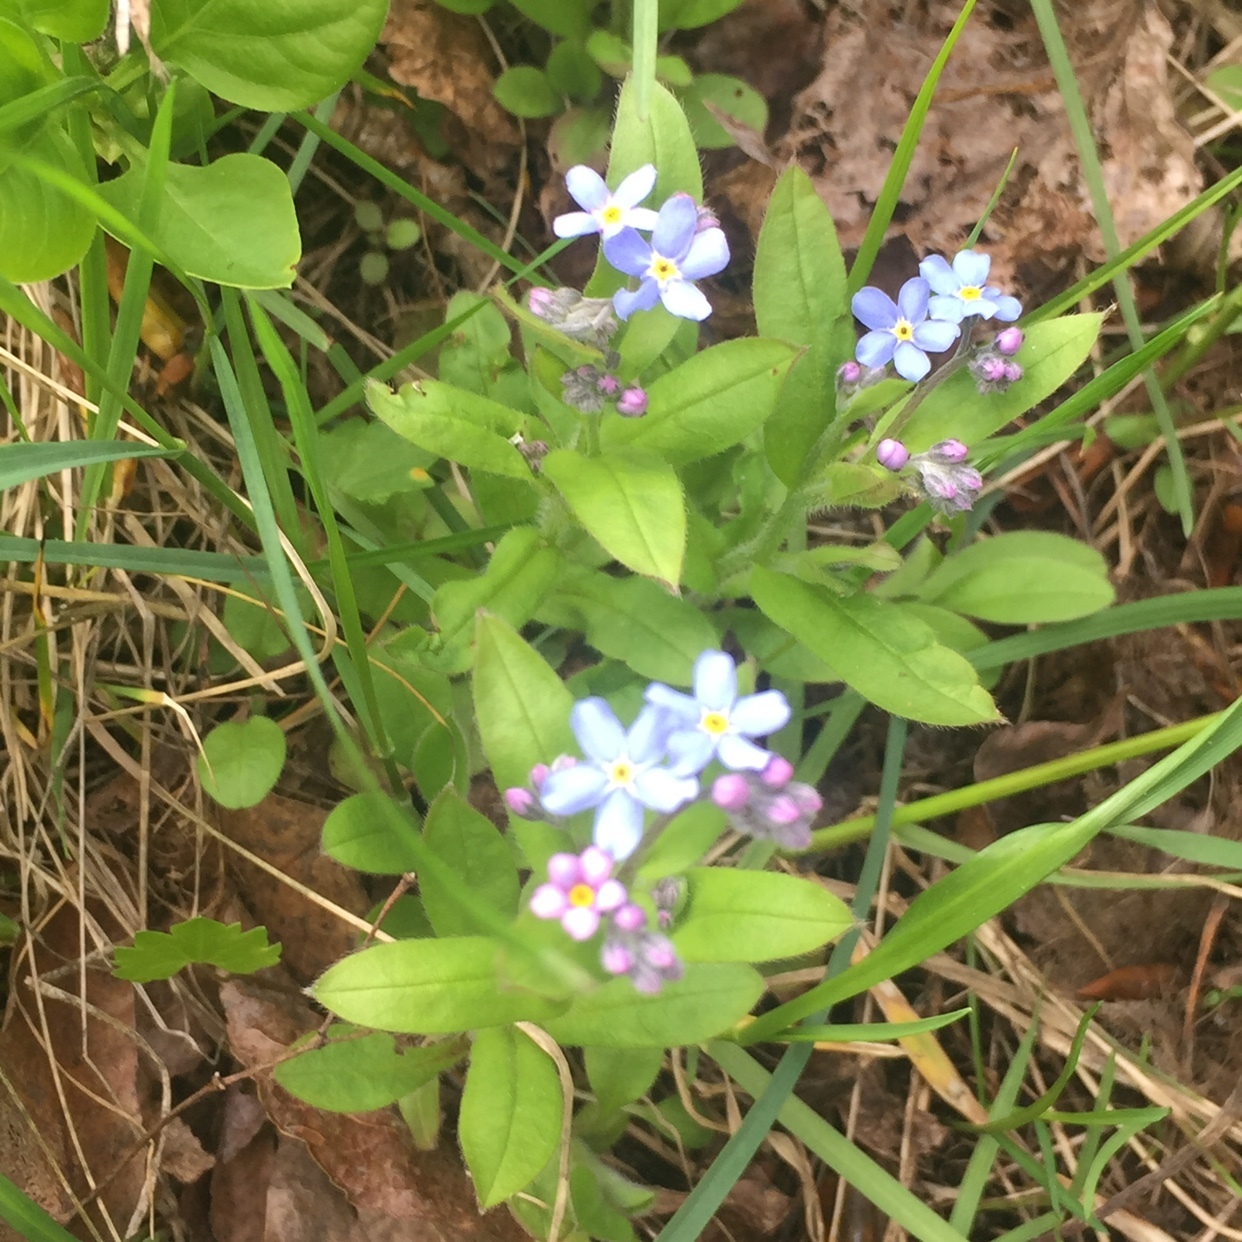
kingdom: Plantae
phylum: Tracheophyta
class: Magnoliopsida
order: Boraginales
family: Boraginaceae
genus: Myosotis
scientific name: Myosotis sylvatica
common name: Wood forget-me-not
